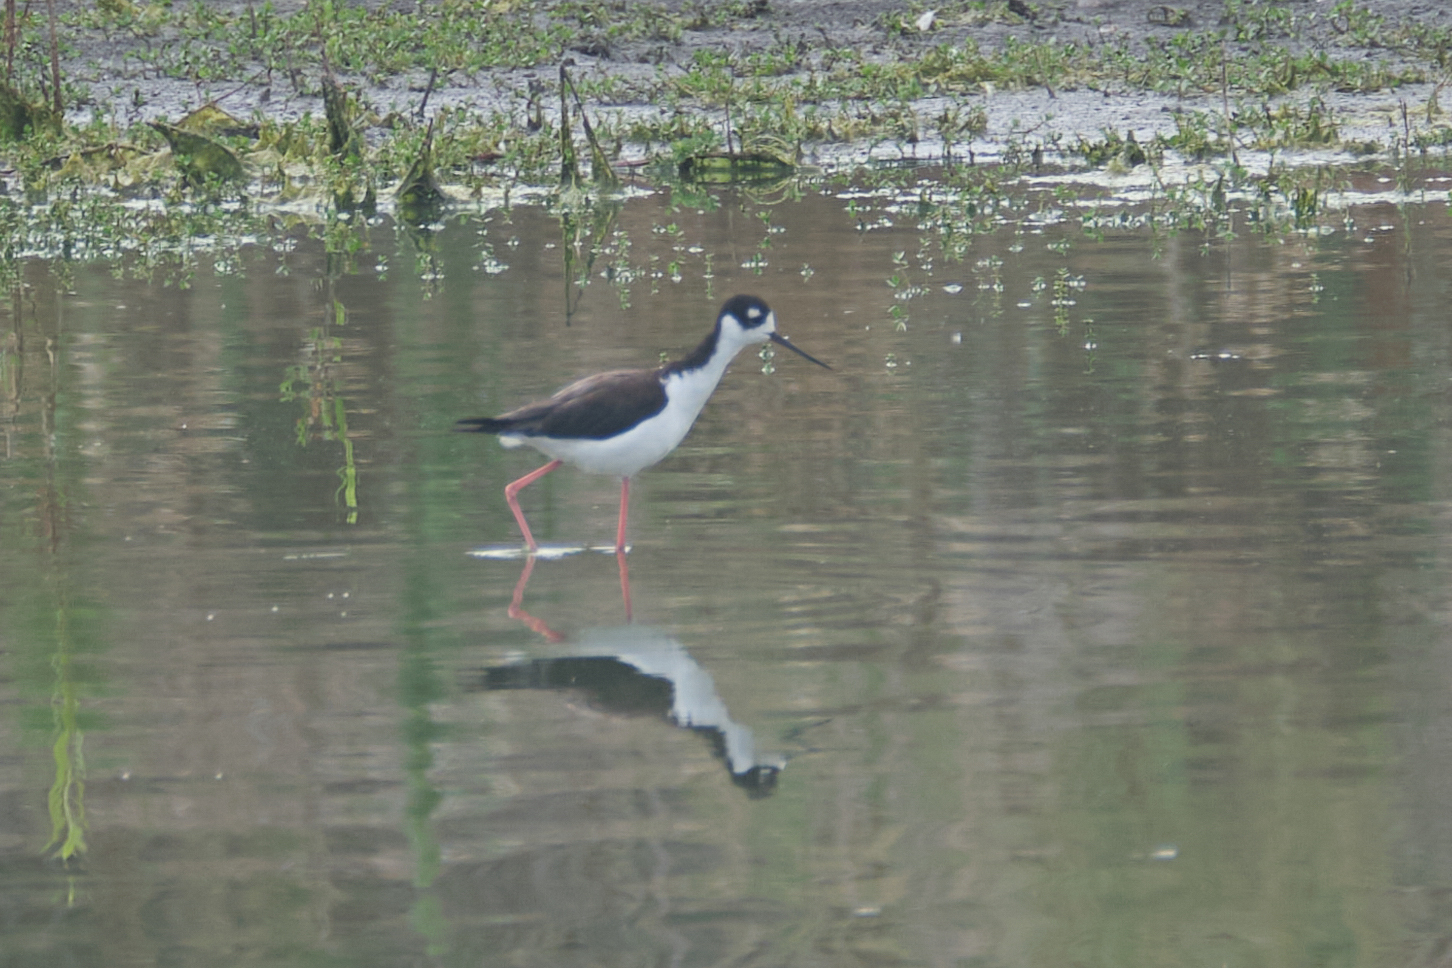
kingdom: Animalia
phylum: Chordata
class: Aves
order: Charadriiformes
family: Recurvirostridae
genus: Himantopus
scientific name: Himantopus mexicanus
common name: Black-necked stilt
